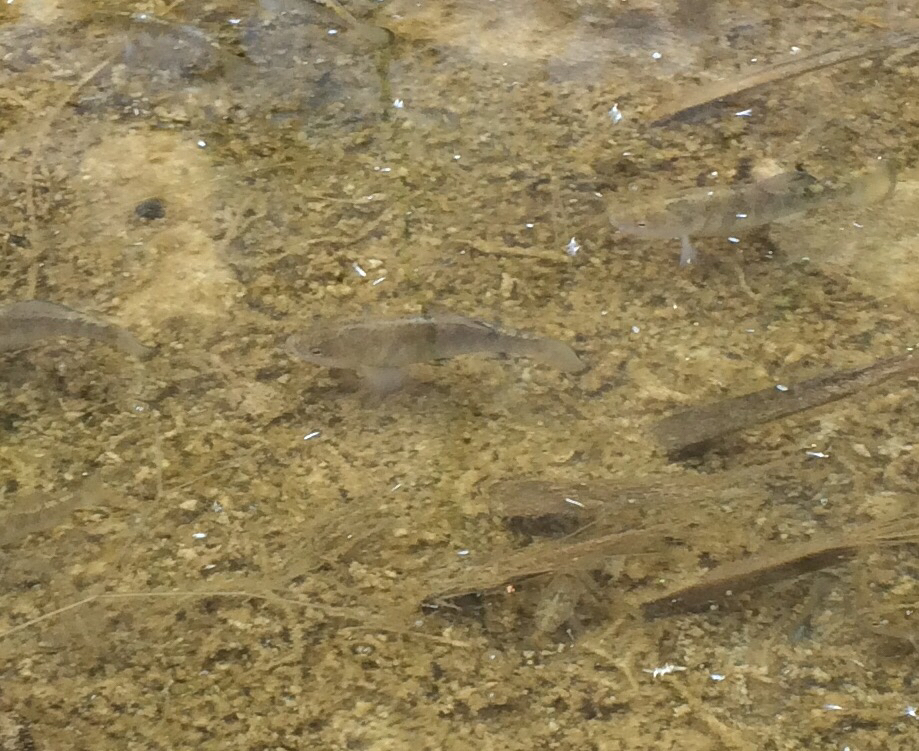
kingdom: Animalia
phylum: Chordata
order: Cyprinodontiformes
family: Cyprinodontidae
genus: Cyprinodon
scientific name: Cyprinodon nevadensis
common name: Amargosa pupfish
